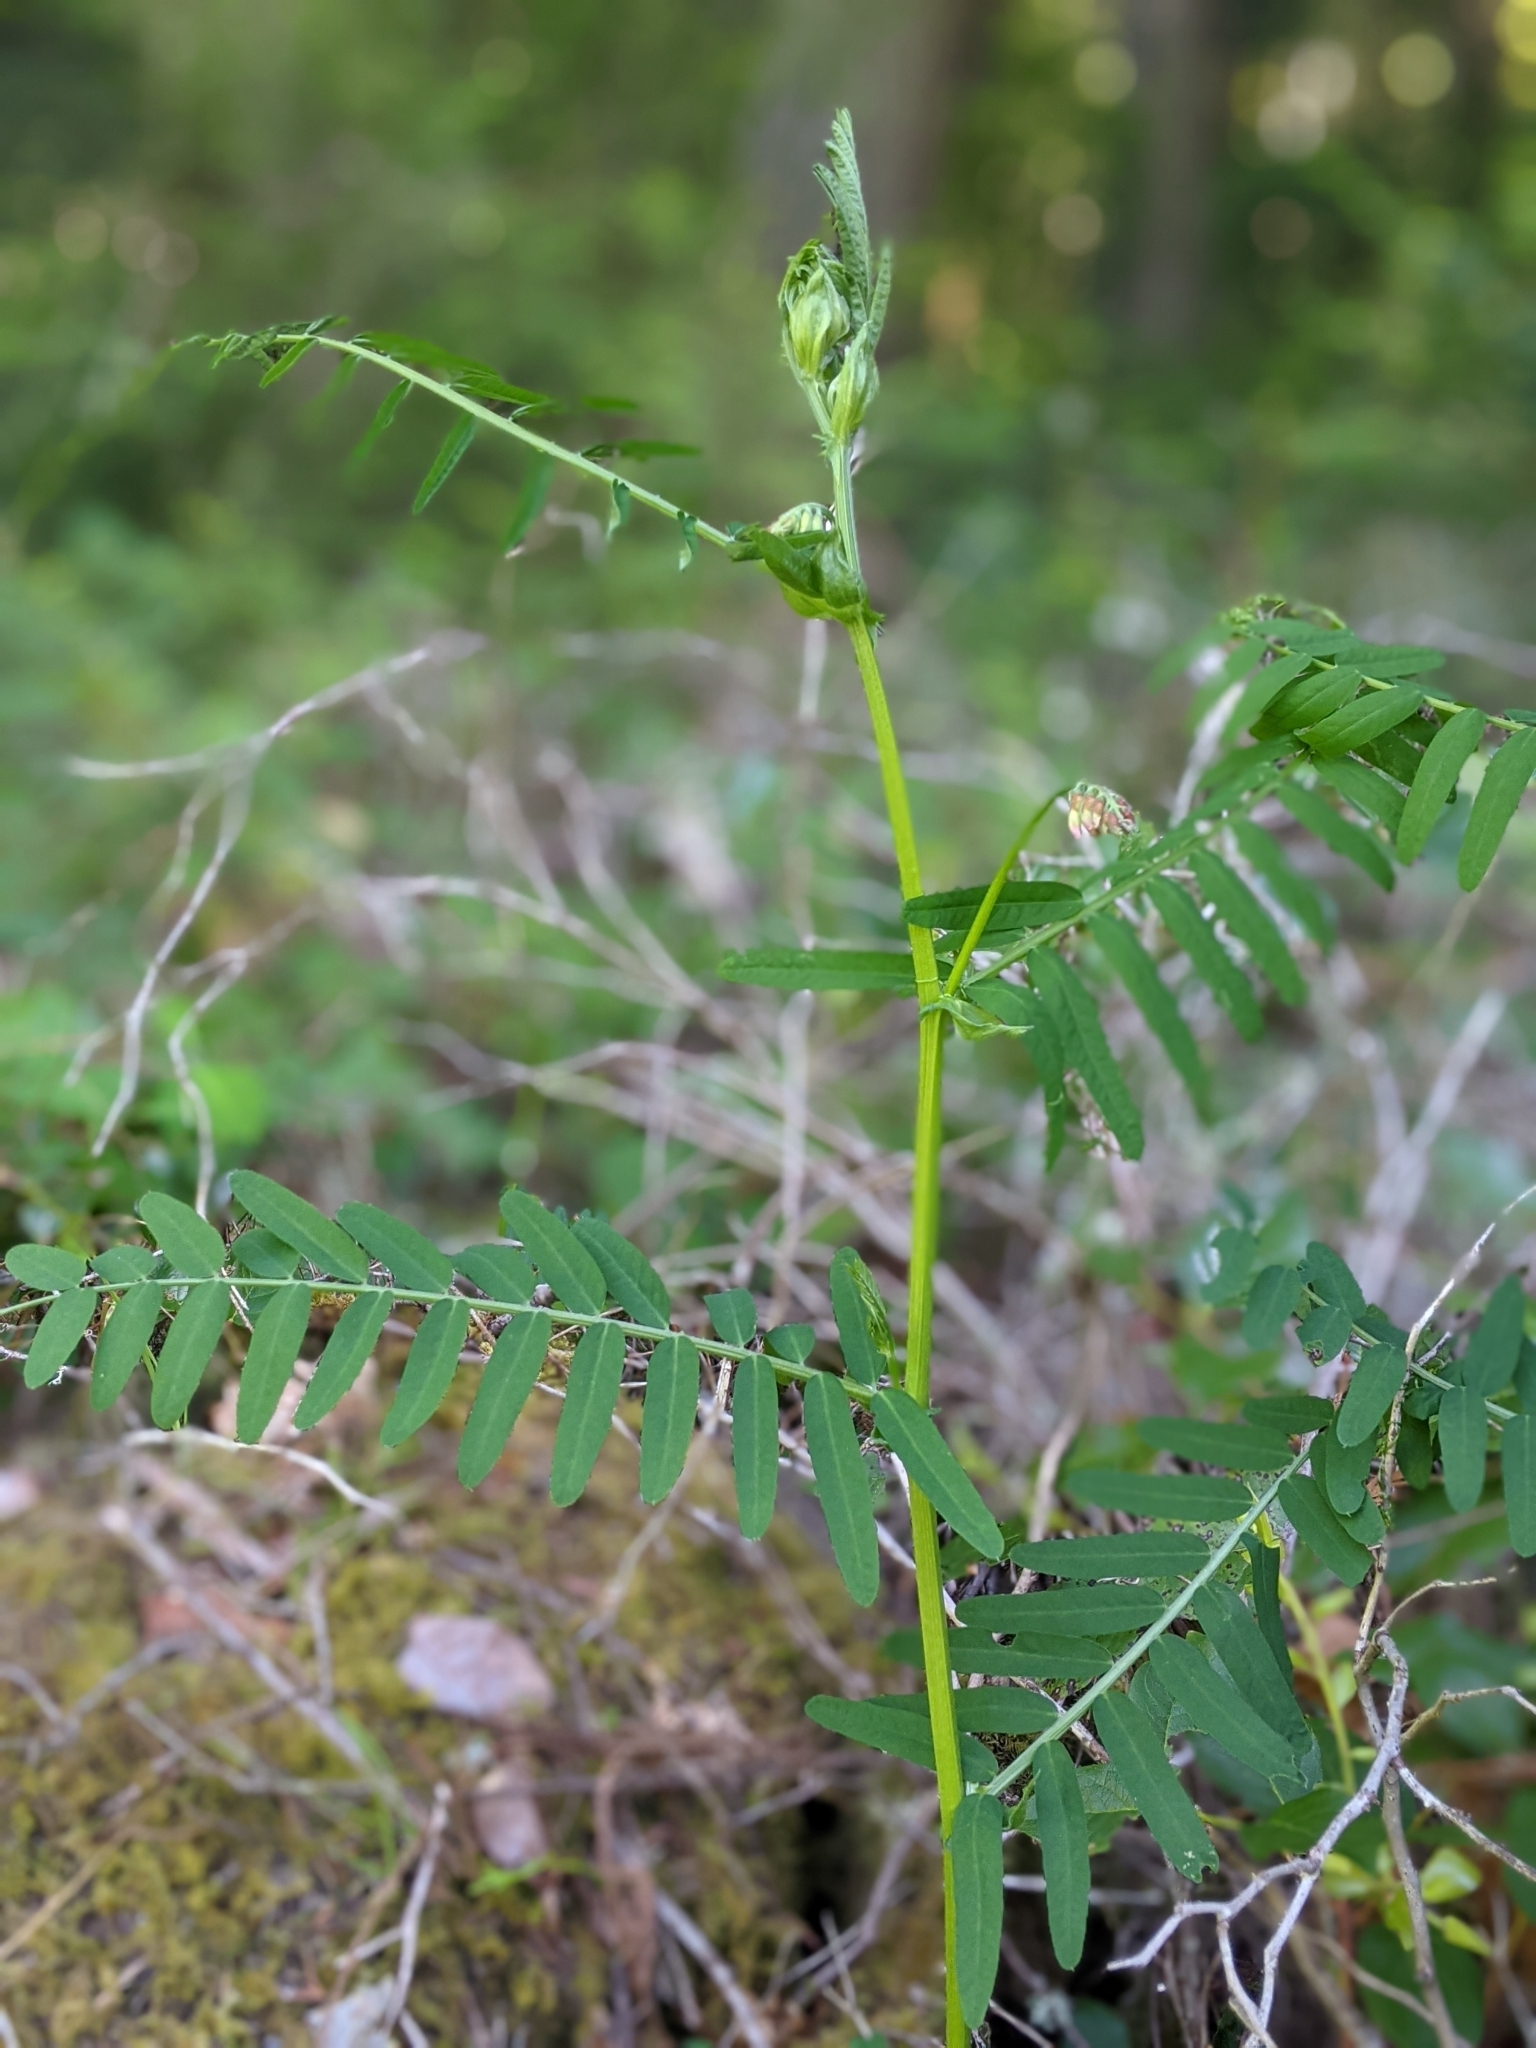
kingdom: Plantae
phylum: Tracheophyta
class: Magnoliopsida
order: Fabales
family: Fabaceae
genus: Vicia
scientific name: Vicia
